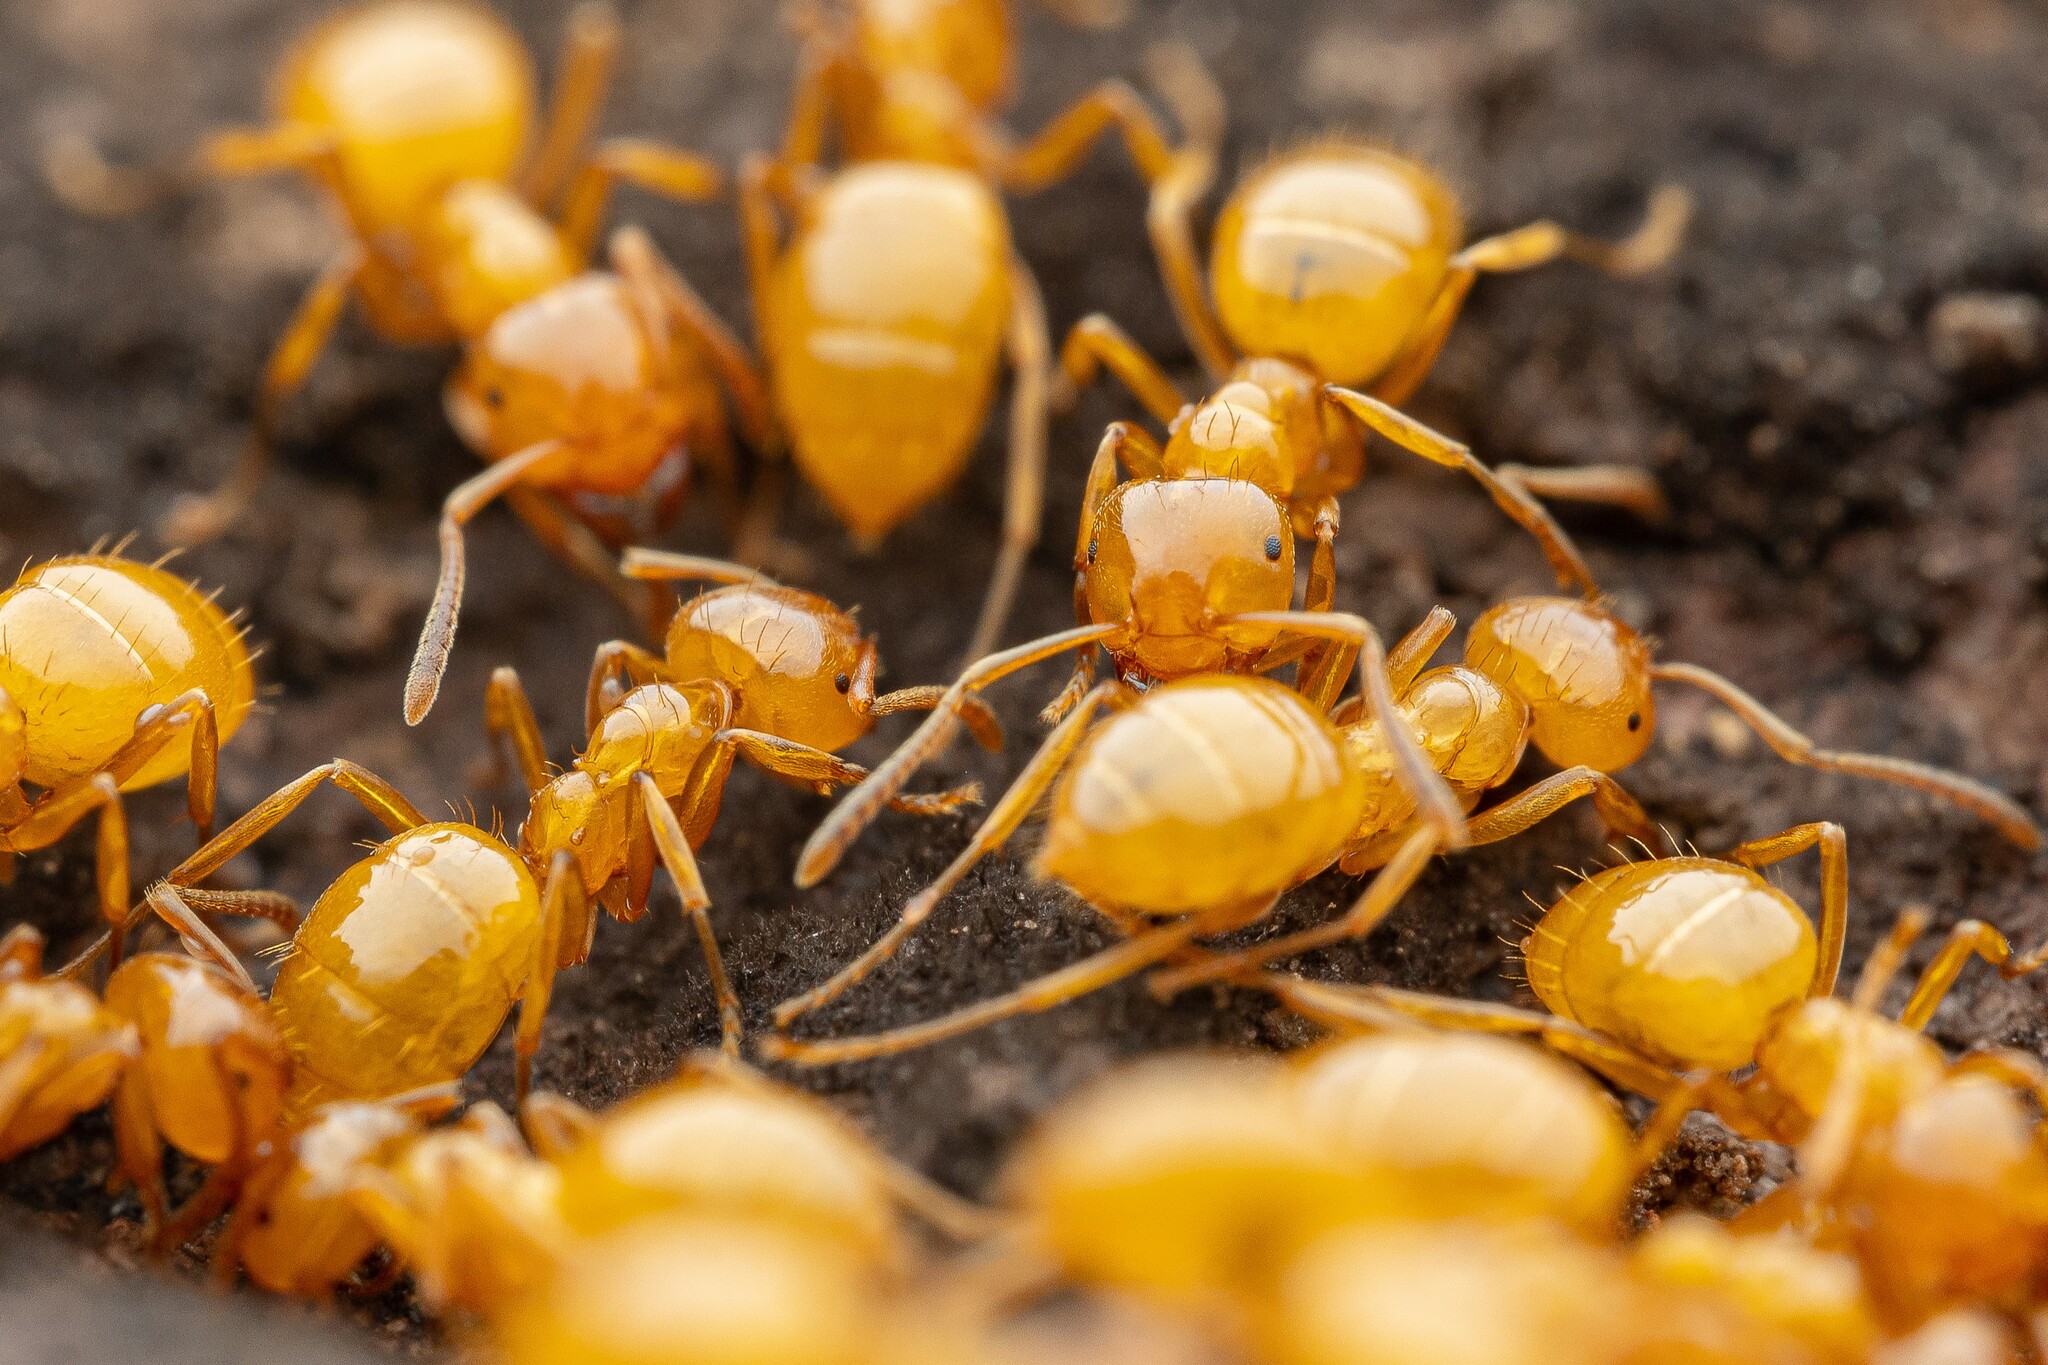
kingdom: Animalia
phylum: Arthropoda
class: Insecta
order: Hymenoptera
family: Formicidae
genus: Lasius
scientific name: Lasius arizonicus
